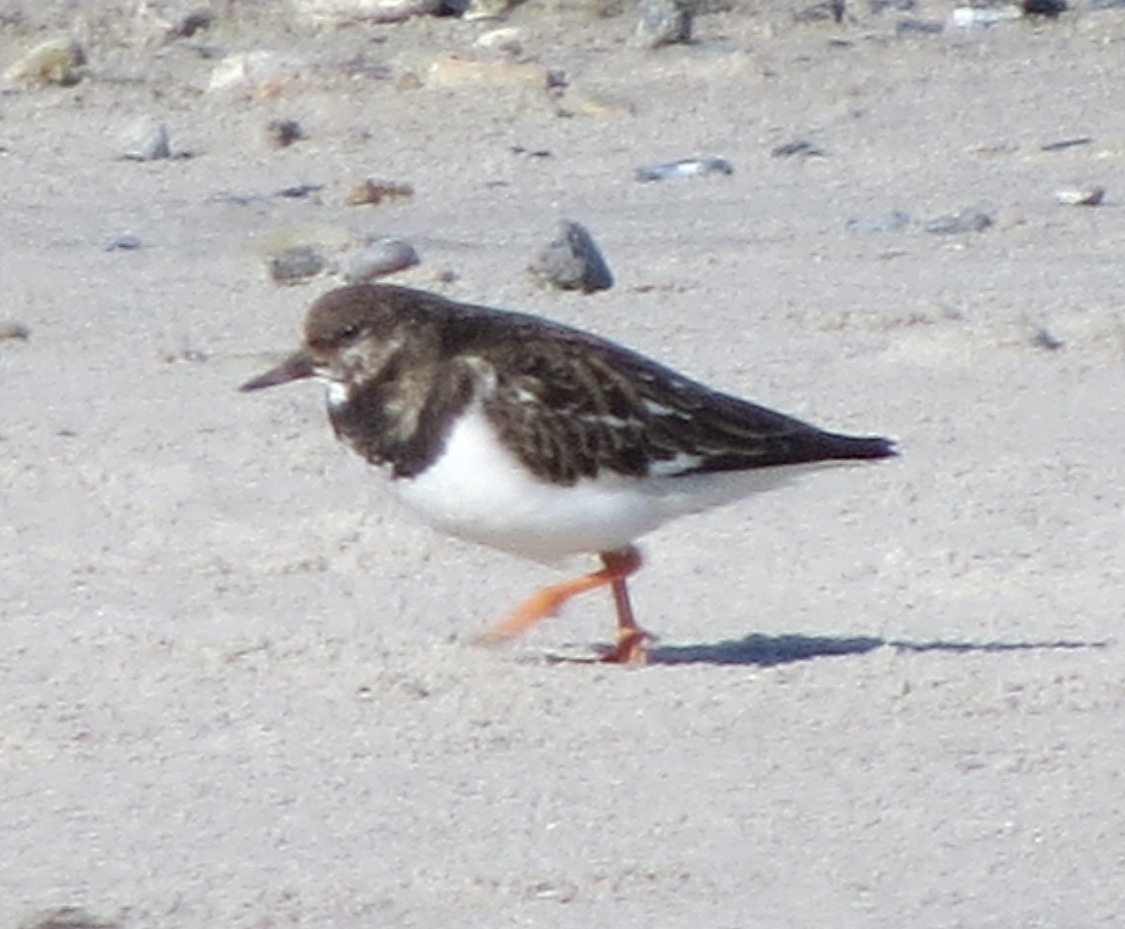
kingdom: Animalia
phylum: Chordata
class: Aves
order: Charadriiformes
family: Scolopacidae
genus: Arenaria
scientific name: Arenaria interpres
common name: Ruddy turnstone
